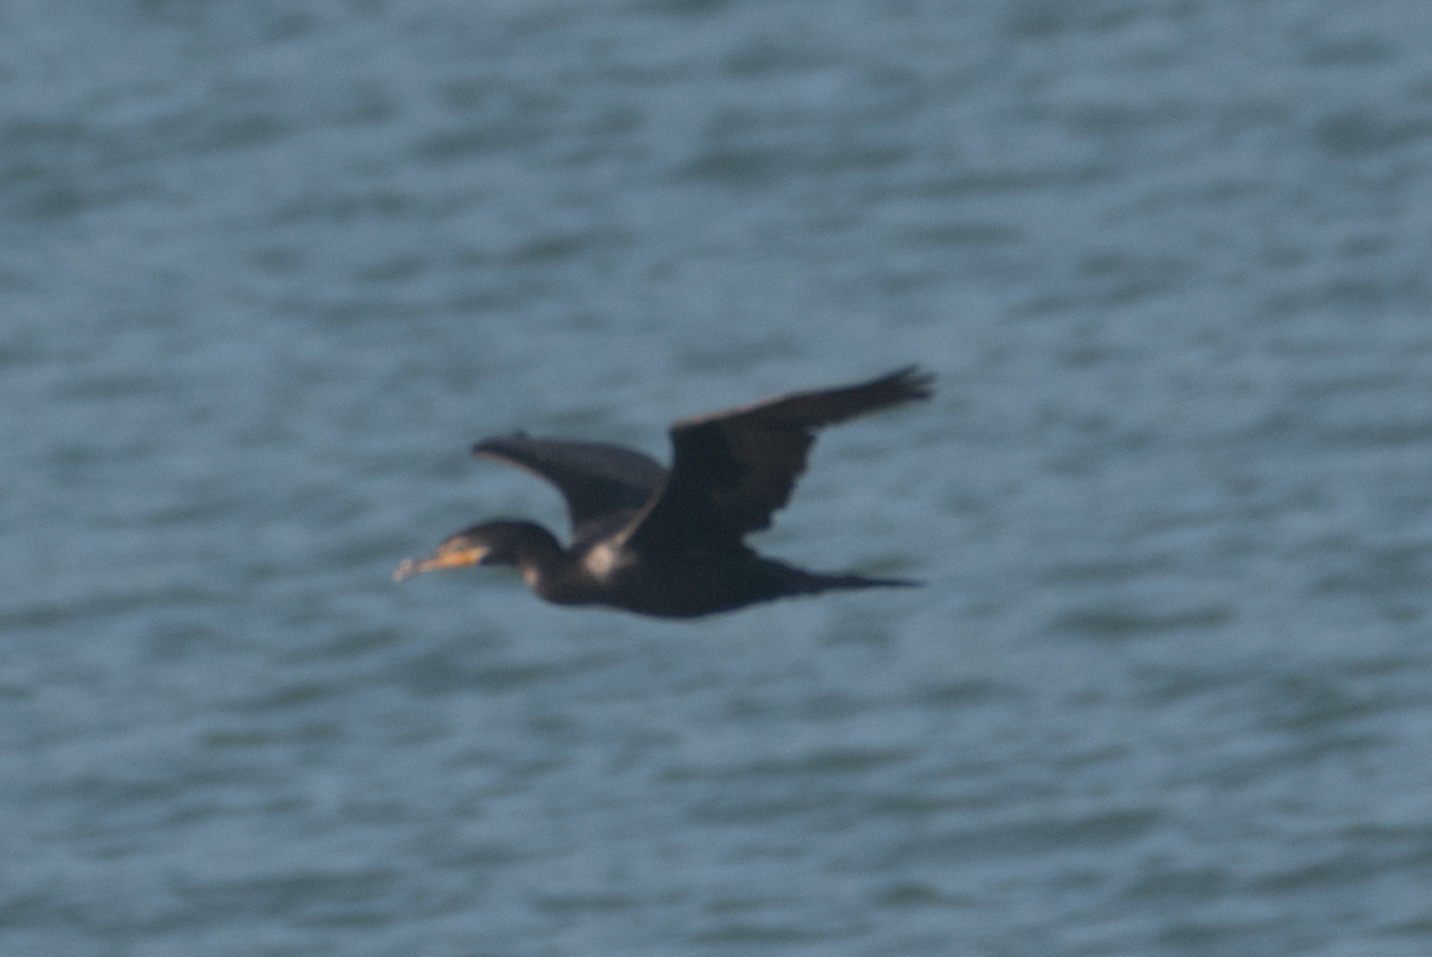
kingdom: Animalia
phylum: Chordata
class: Aves
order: Suliformes
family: Phalacrocoracidae
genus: Phalacrocorax
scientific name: Phalacrocorax brasilianus
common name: Neotropic cormorant
